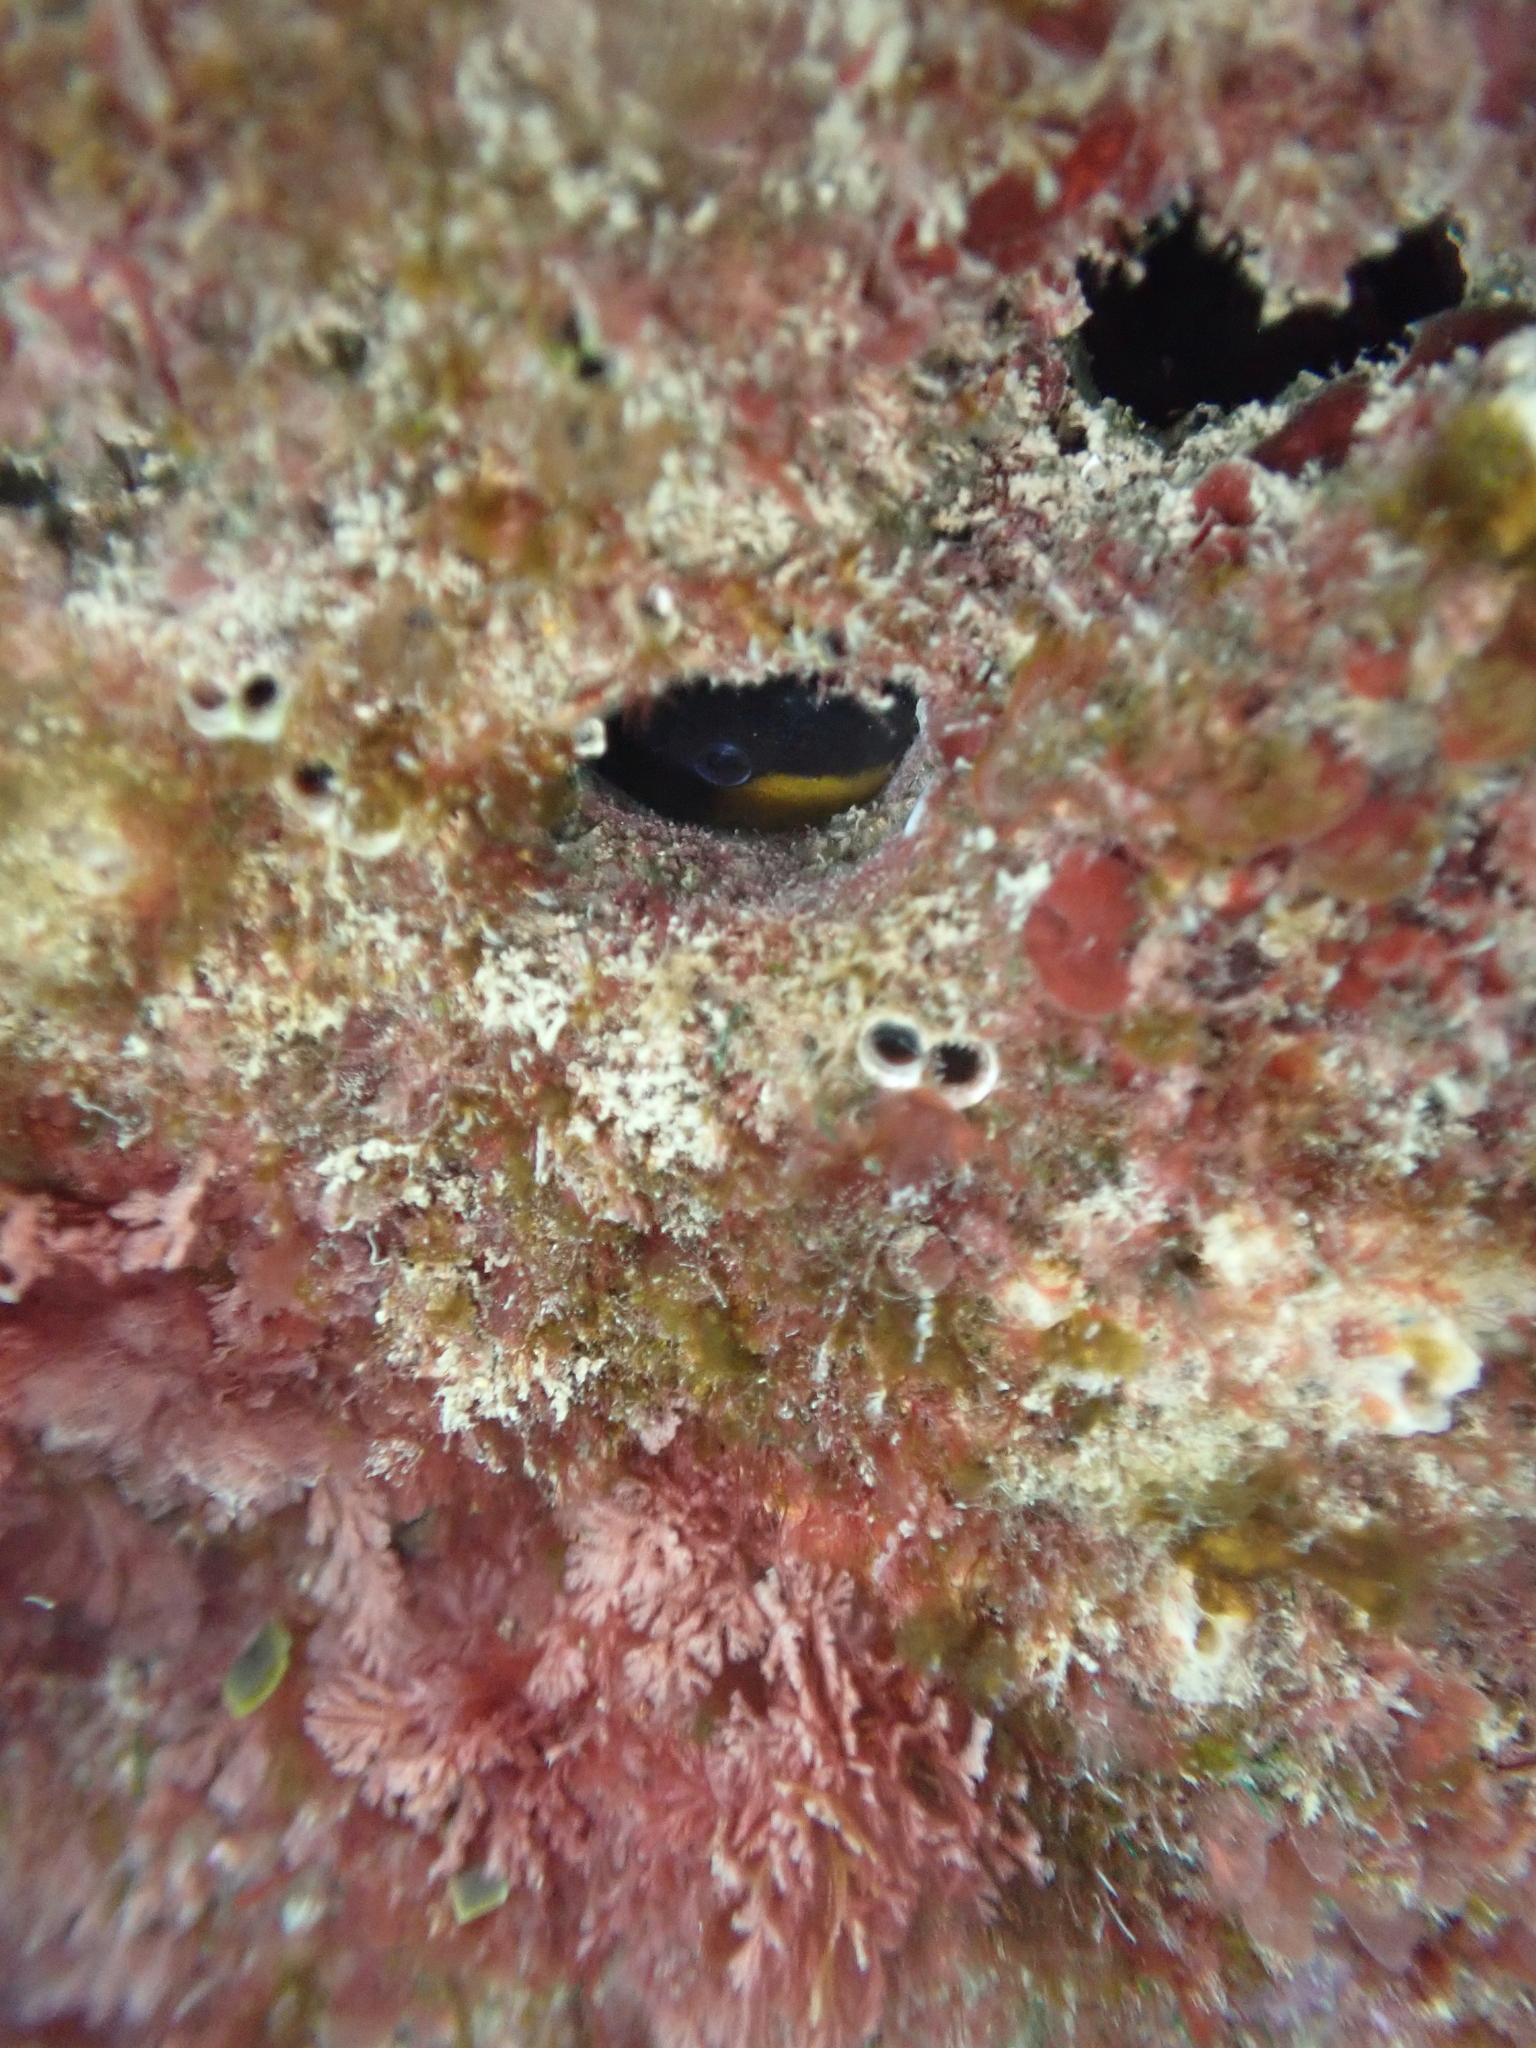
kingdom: Animalia
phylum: Chordata
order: Perciformes
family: Blenniidae
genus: Microlipophrys
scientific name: Microlipophrys canevae
